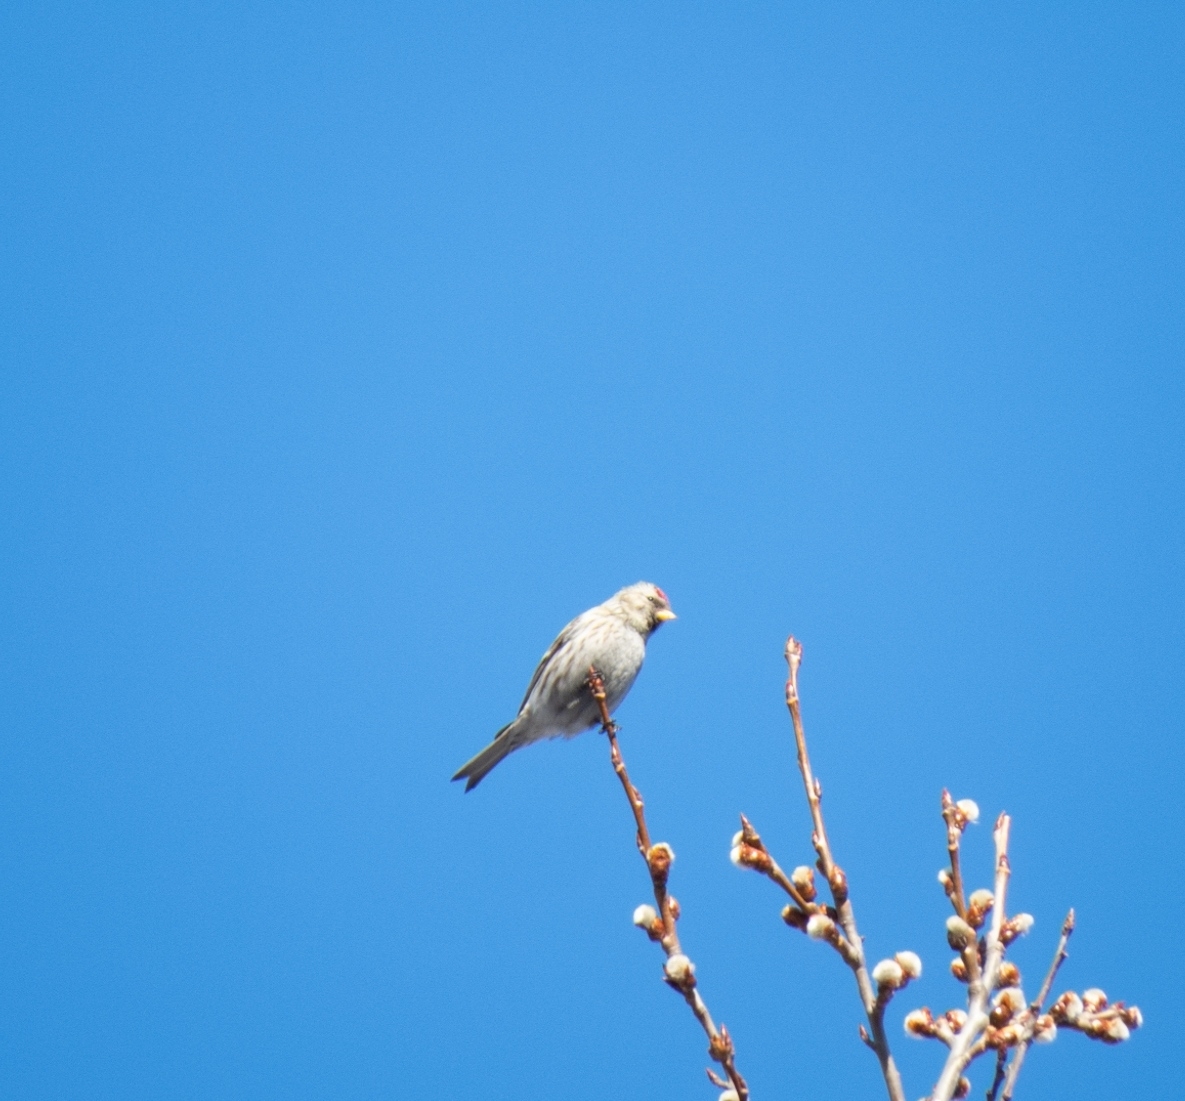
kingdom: Animalia
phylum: Chordata
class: Aves
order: Passeriformes
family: Fringillidae
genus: Acanthis
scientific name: Acanthis flammea
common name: Common redpoll
